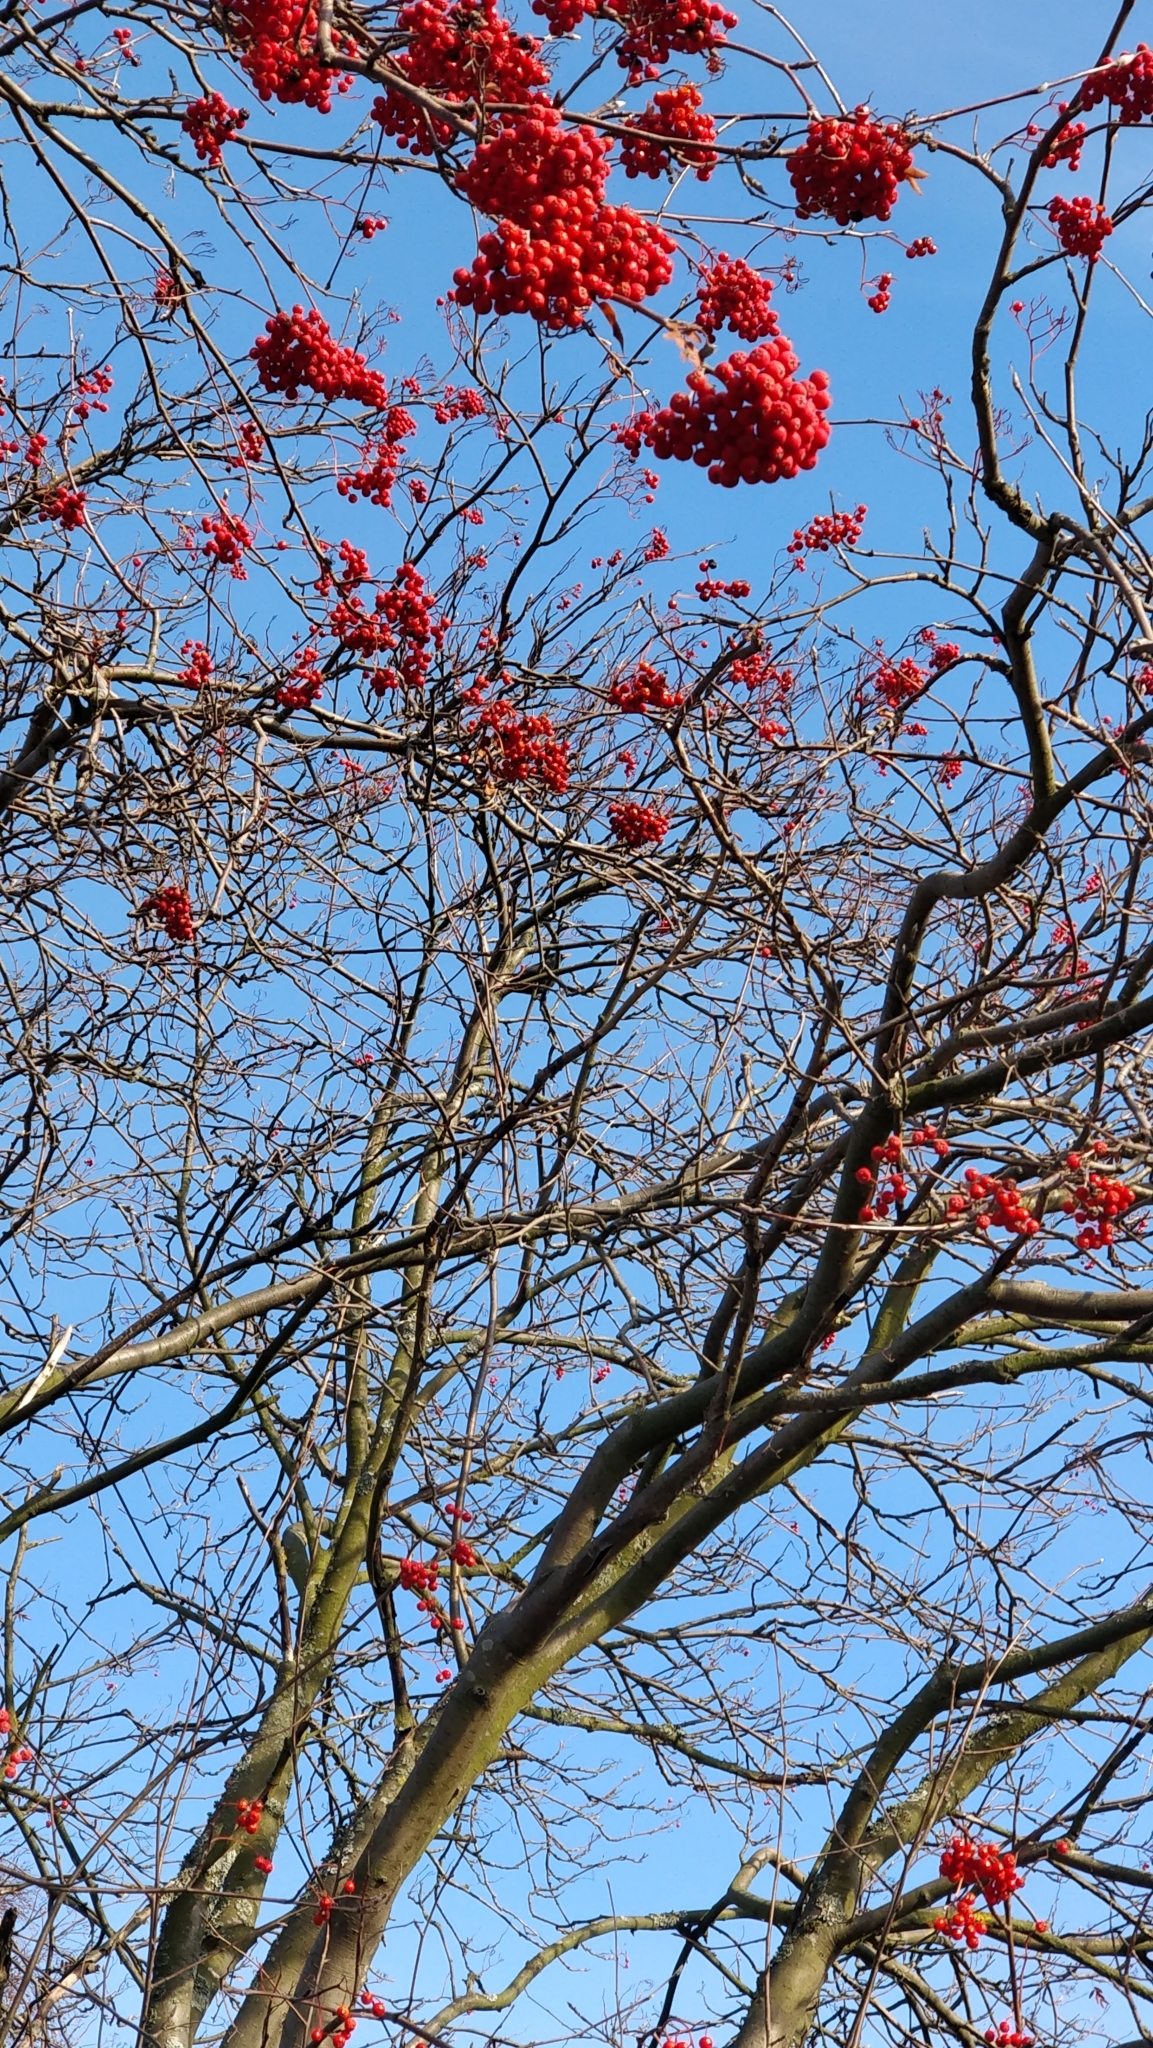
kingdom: Animalia
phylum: Chordata
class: Aves
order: Passeriformes
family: Turdidae
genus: Turdus
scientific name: Turdus merula
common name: Common blackbird
